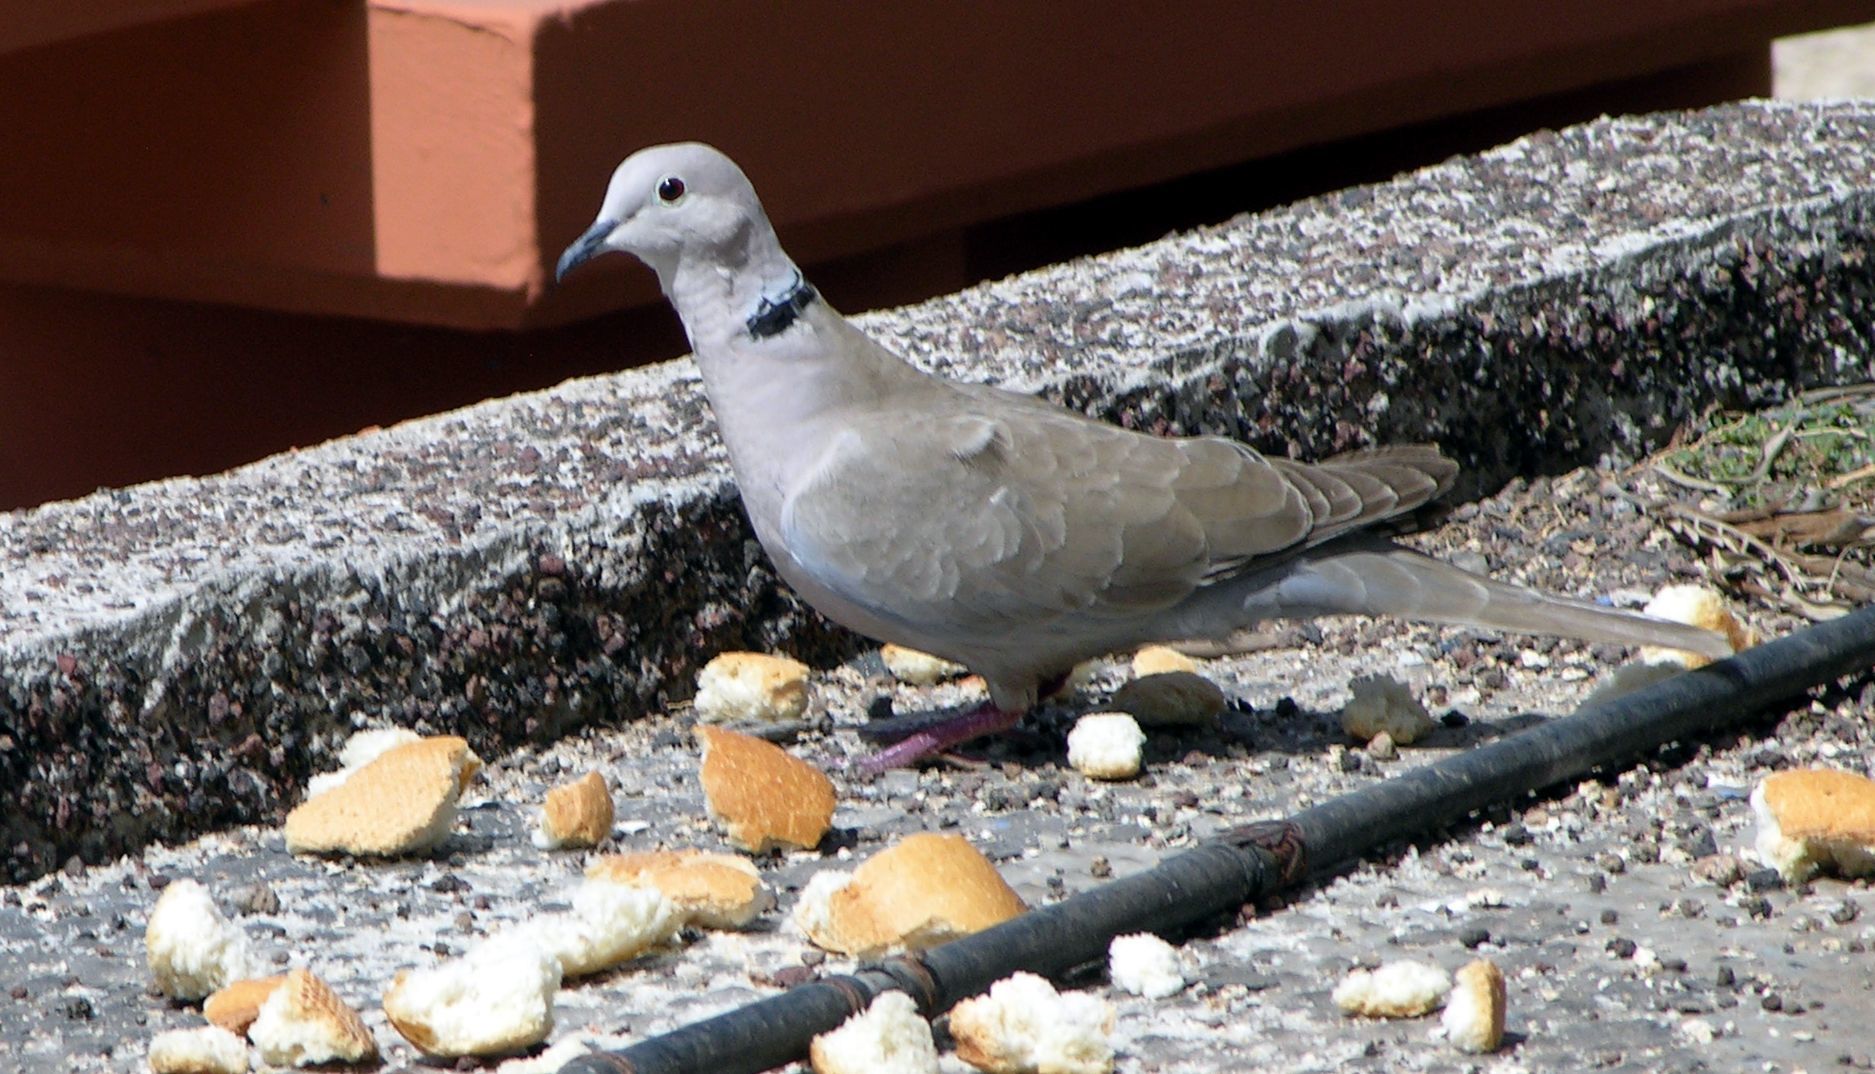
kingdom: Animalia
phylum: Chordata
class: Aves
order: Columbiformes
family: Columbidae
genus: Streptopelia
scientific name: Streptopelia decaocto
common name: Eurasian collared dove
